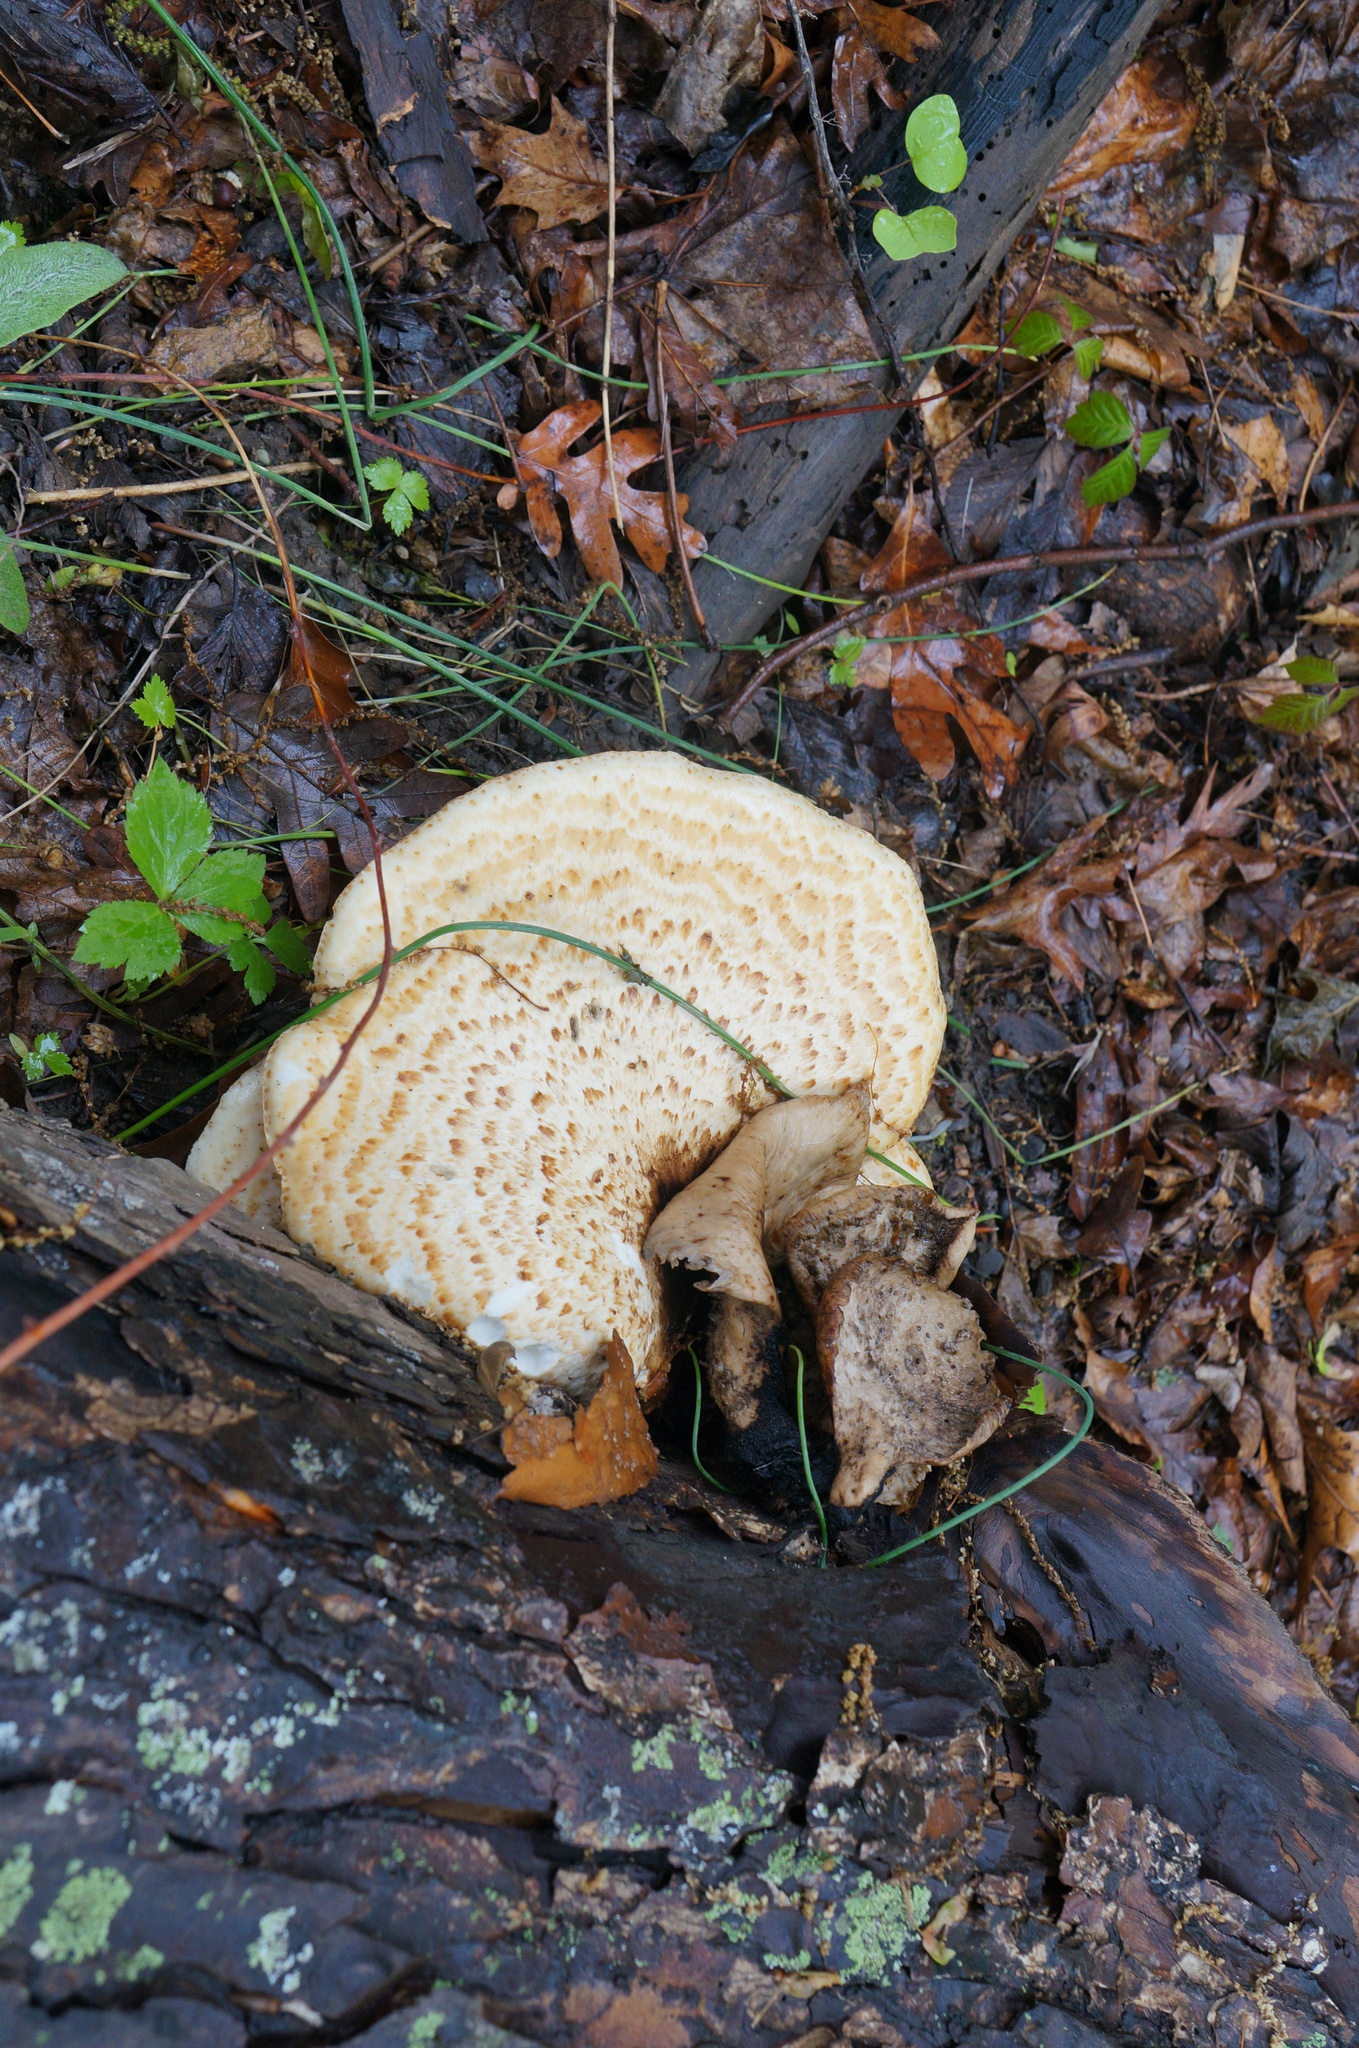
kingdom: Fungi
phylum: Basidiomycota
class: Agaricomycetes
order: Polyporales
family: Polyporaceae
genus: Cerioporus
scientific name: Cerioporus squamosus
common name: Dryad's saddle
